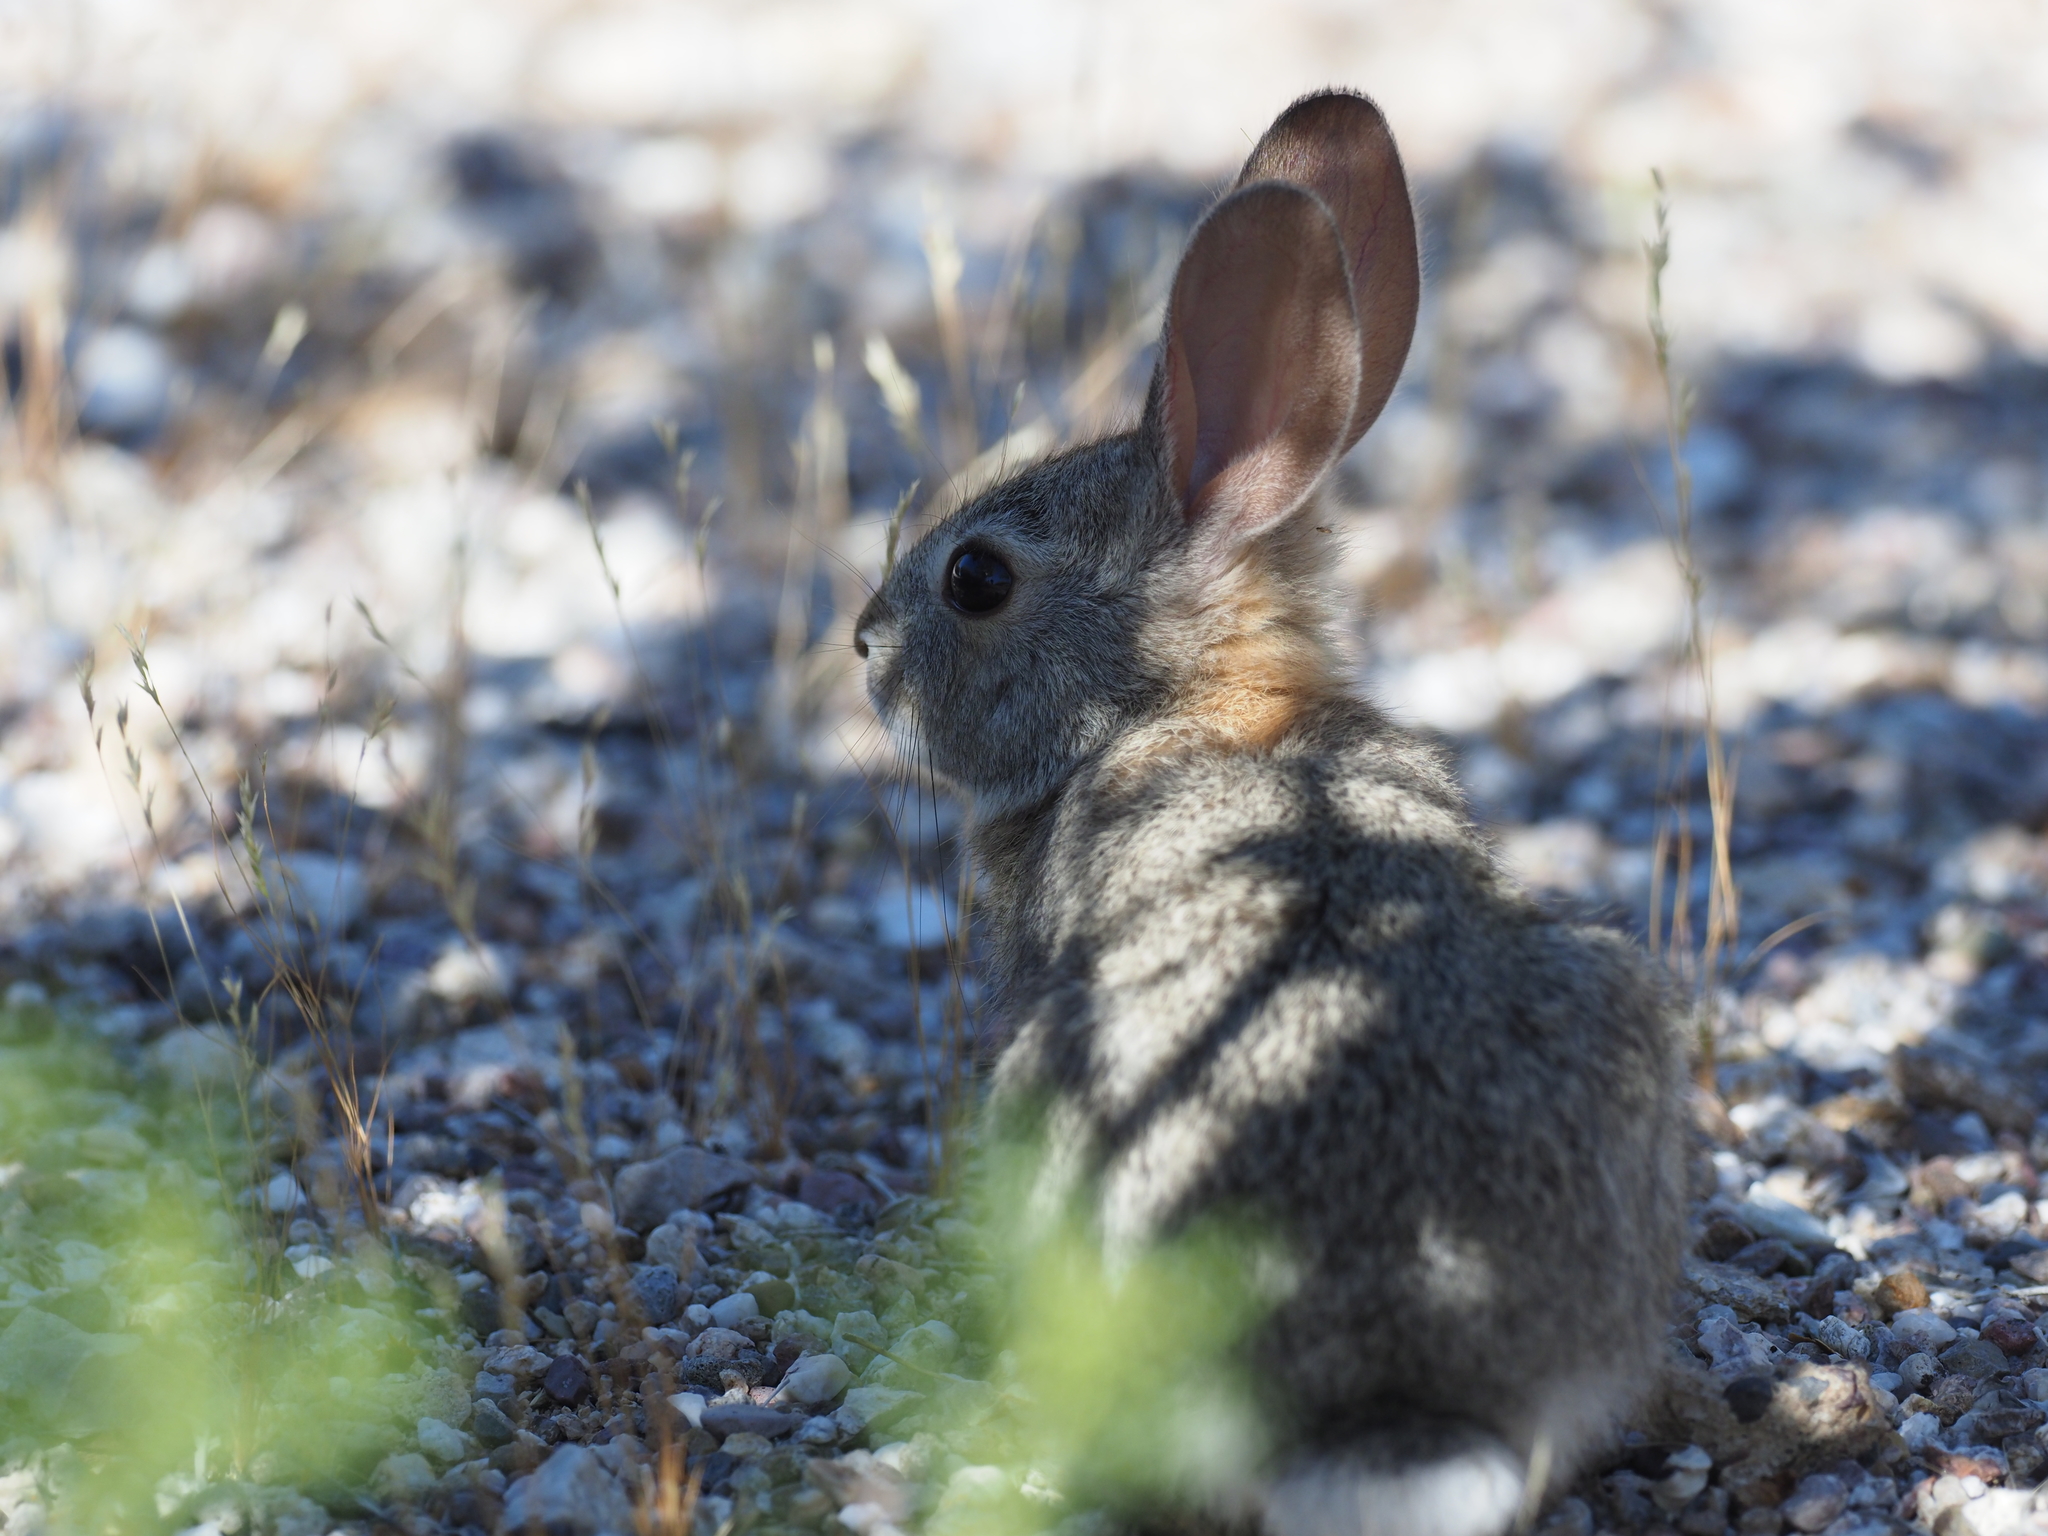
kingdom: Animalia
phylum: Chordata
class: Mammalia
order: Lagomorpha
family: Leporidae
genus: Sylvilagus
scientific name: Sylvilagus audubonii
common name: Desert cottontail
